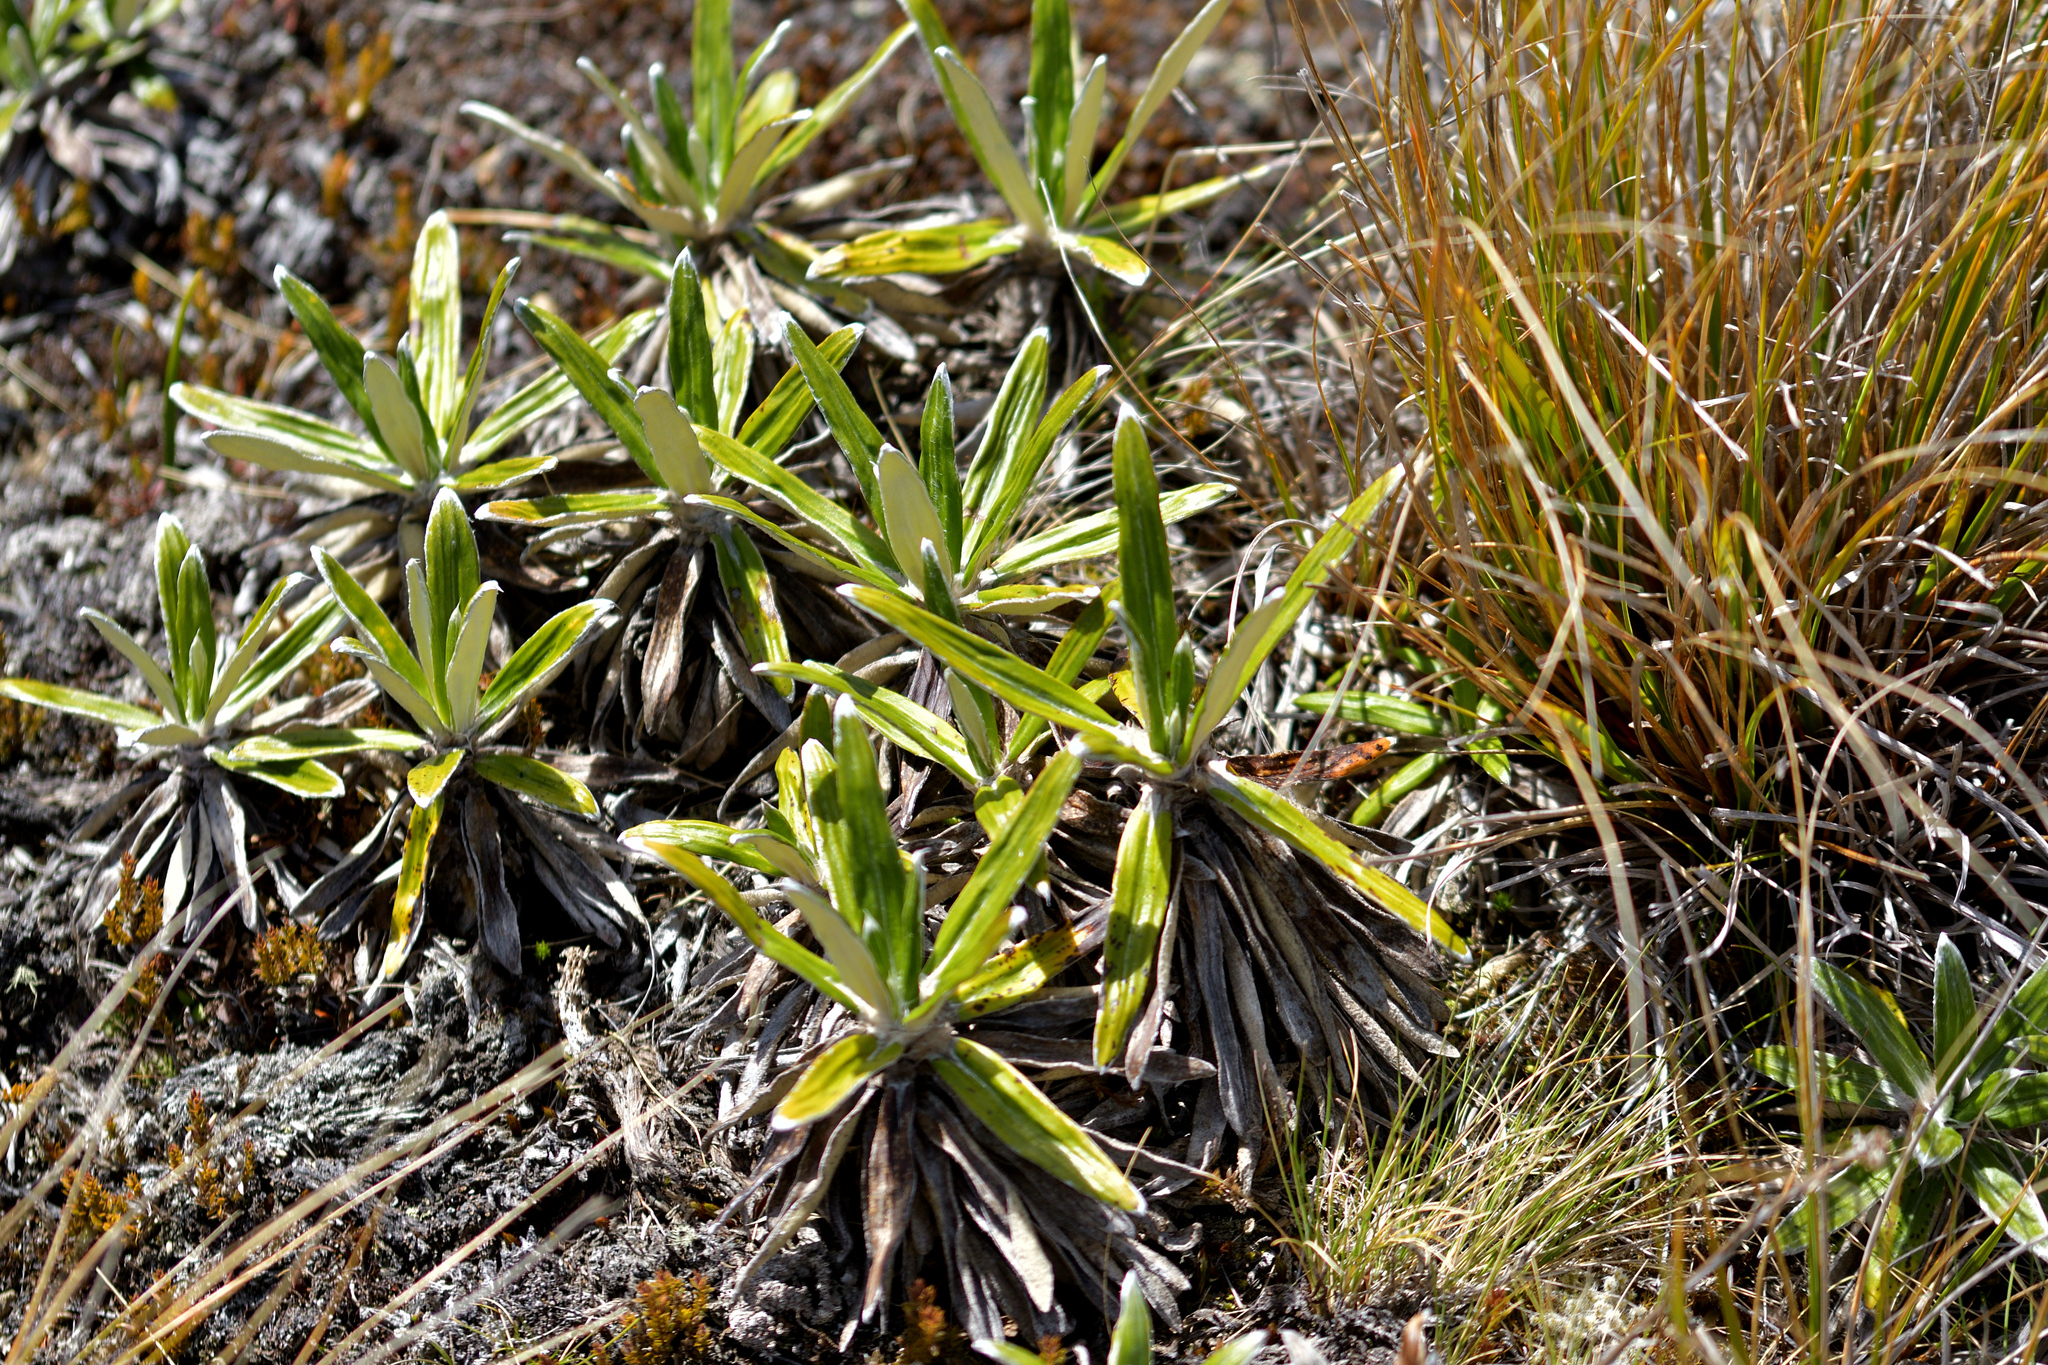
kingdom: Plantae
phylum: Tracheophyta
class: Magnoliopsida
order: Asterales
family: Asteraceae
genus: Celmisia
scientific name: Celmisia spectabilis
